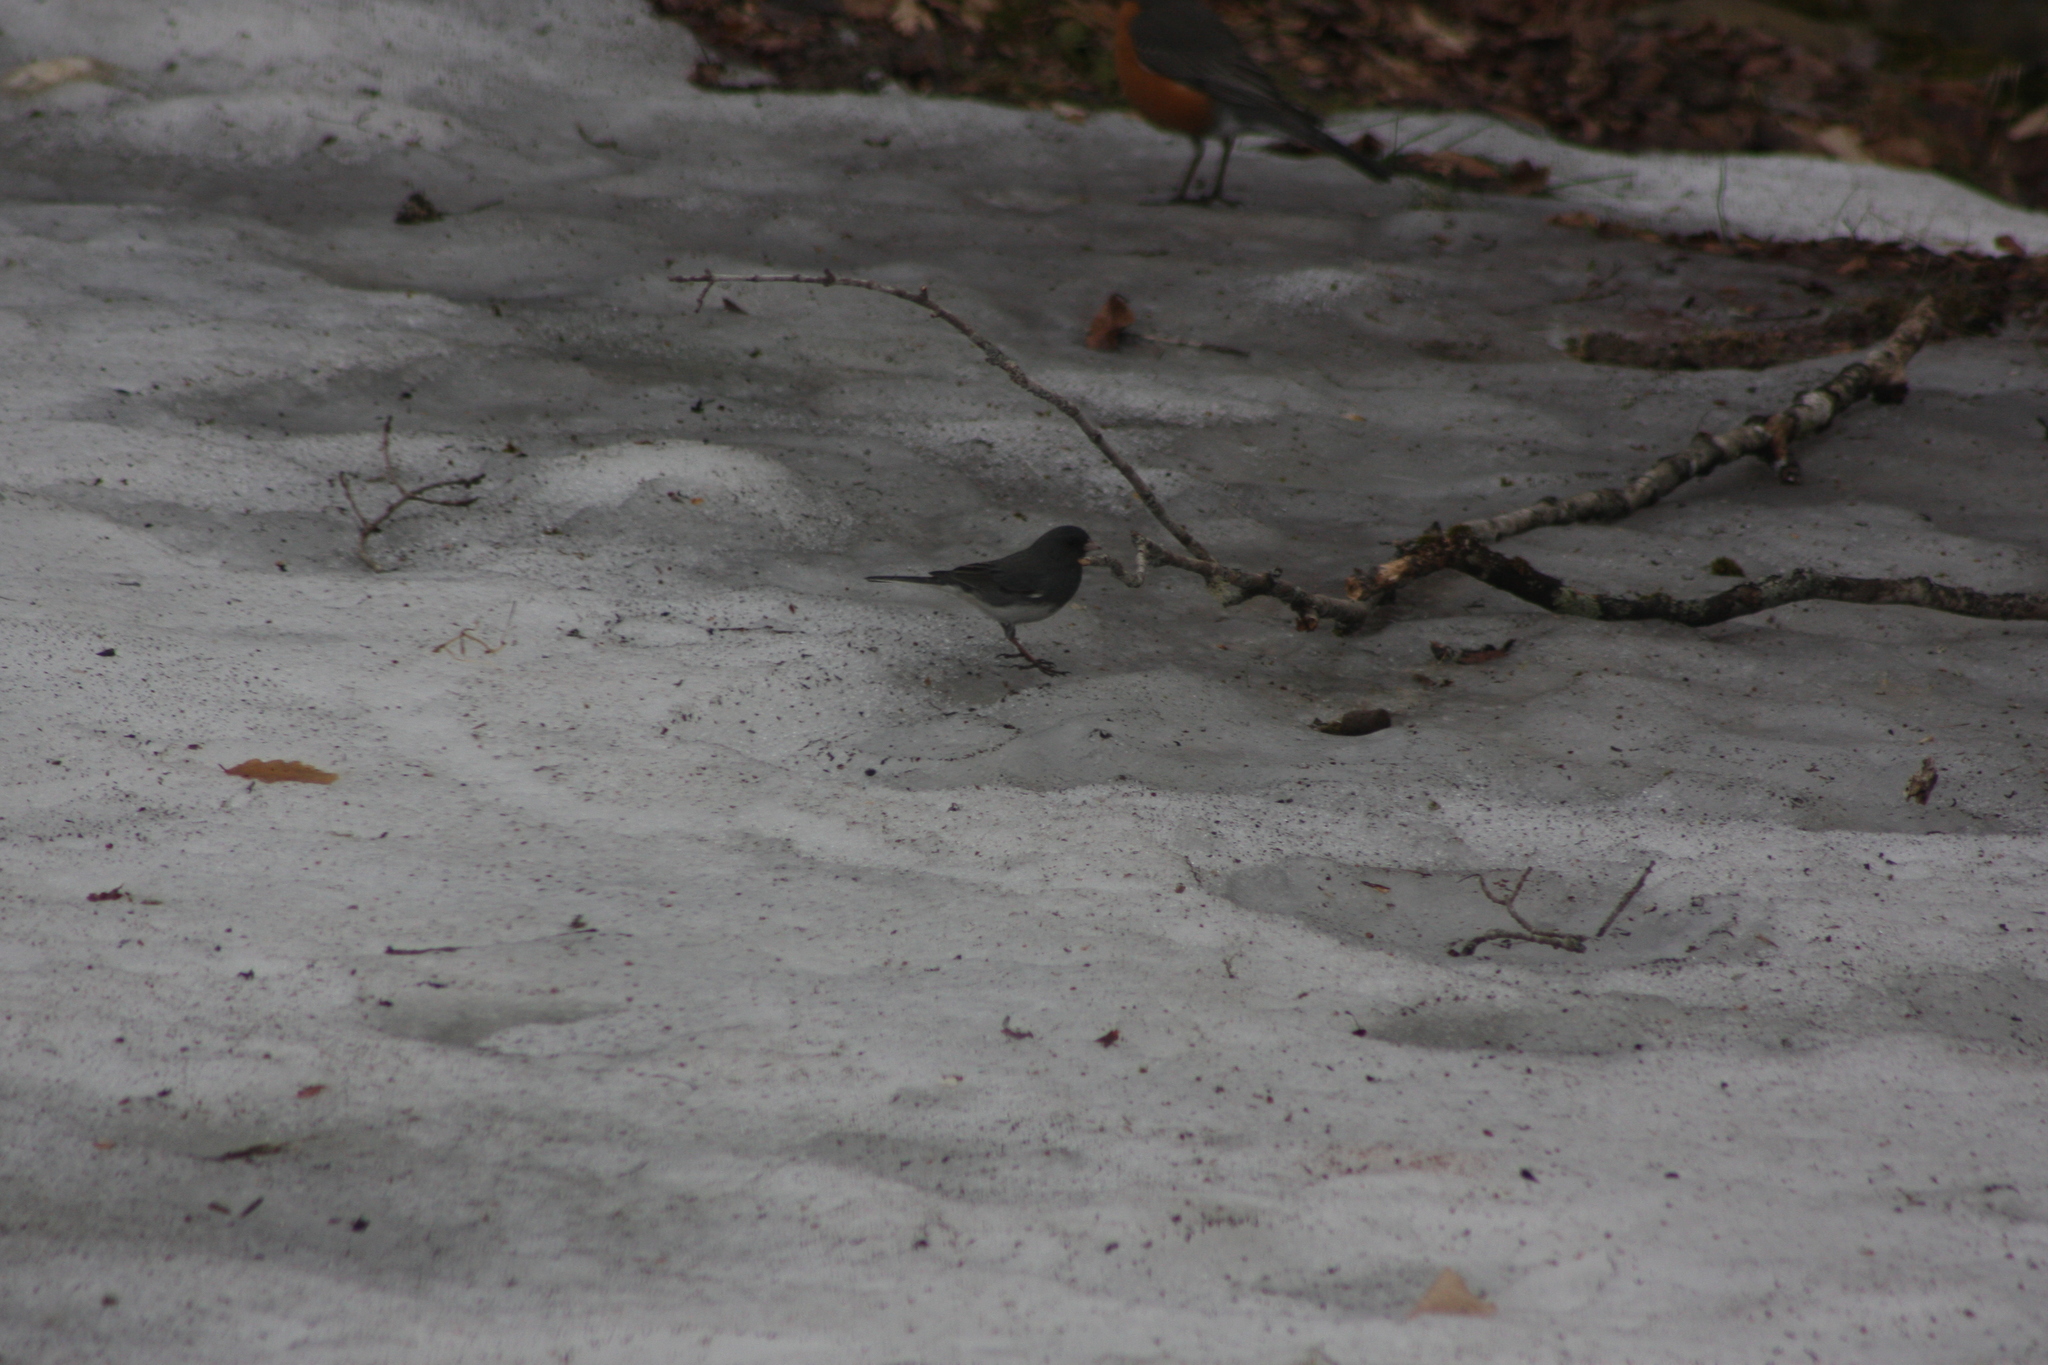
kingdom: Animalia
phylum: Chordata
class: Aves
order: Passeriformes
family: Passerellidae
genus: Junco
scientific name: Junco hyemalis
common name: Dark-eyed junco
